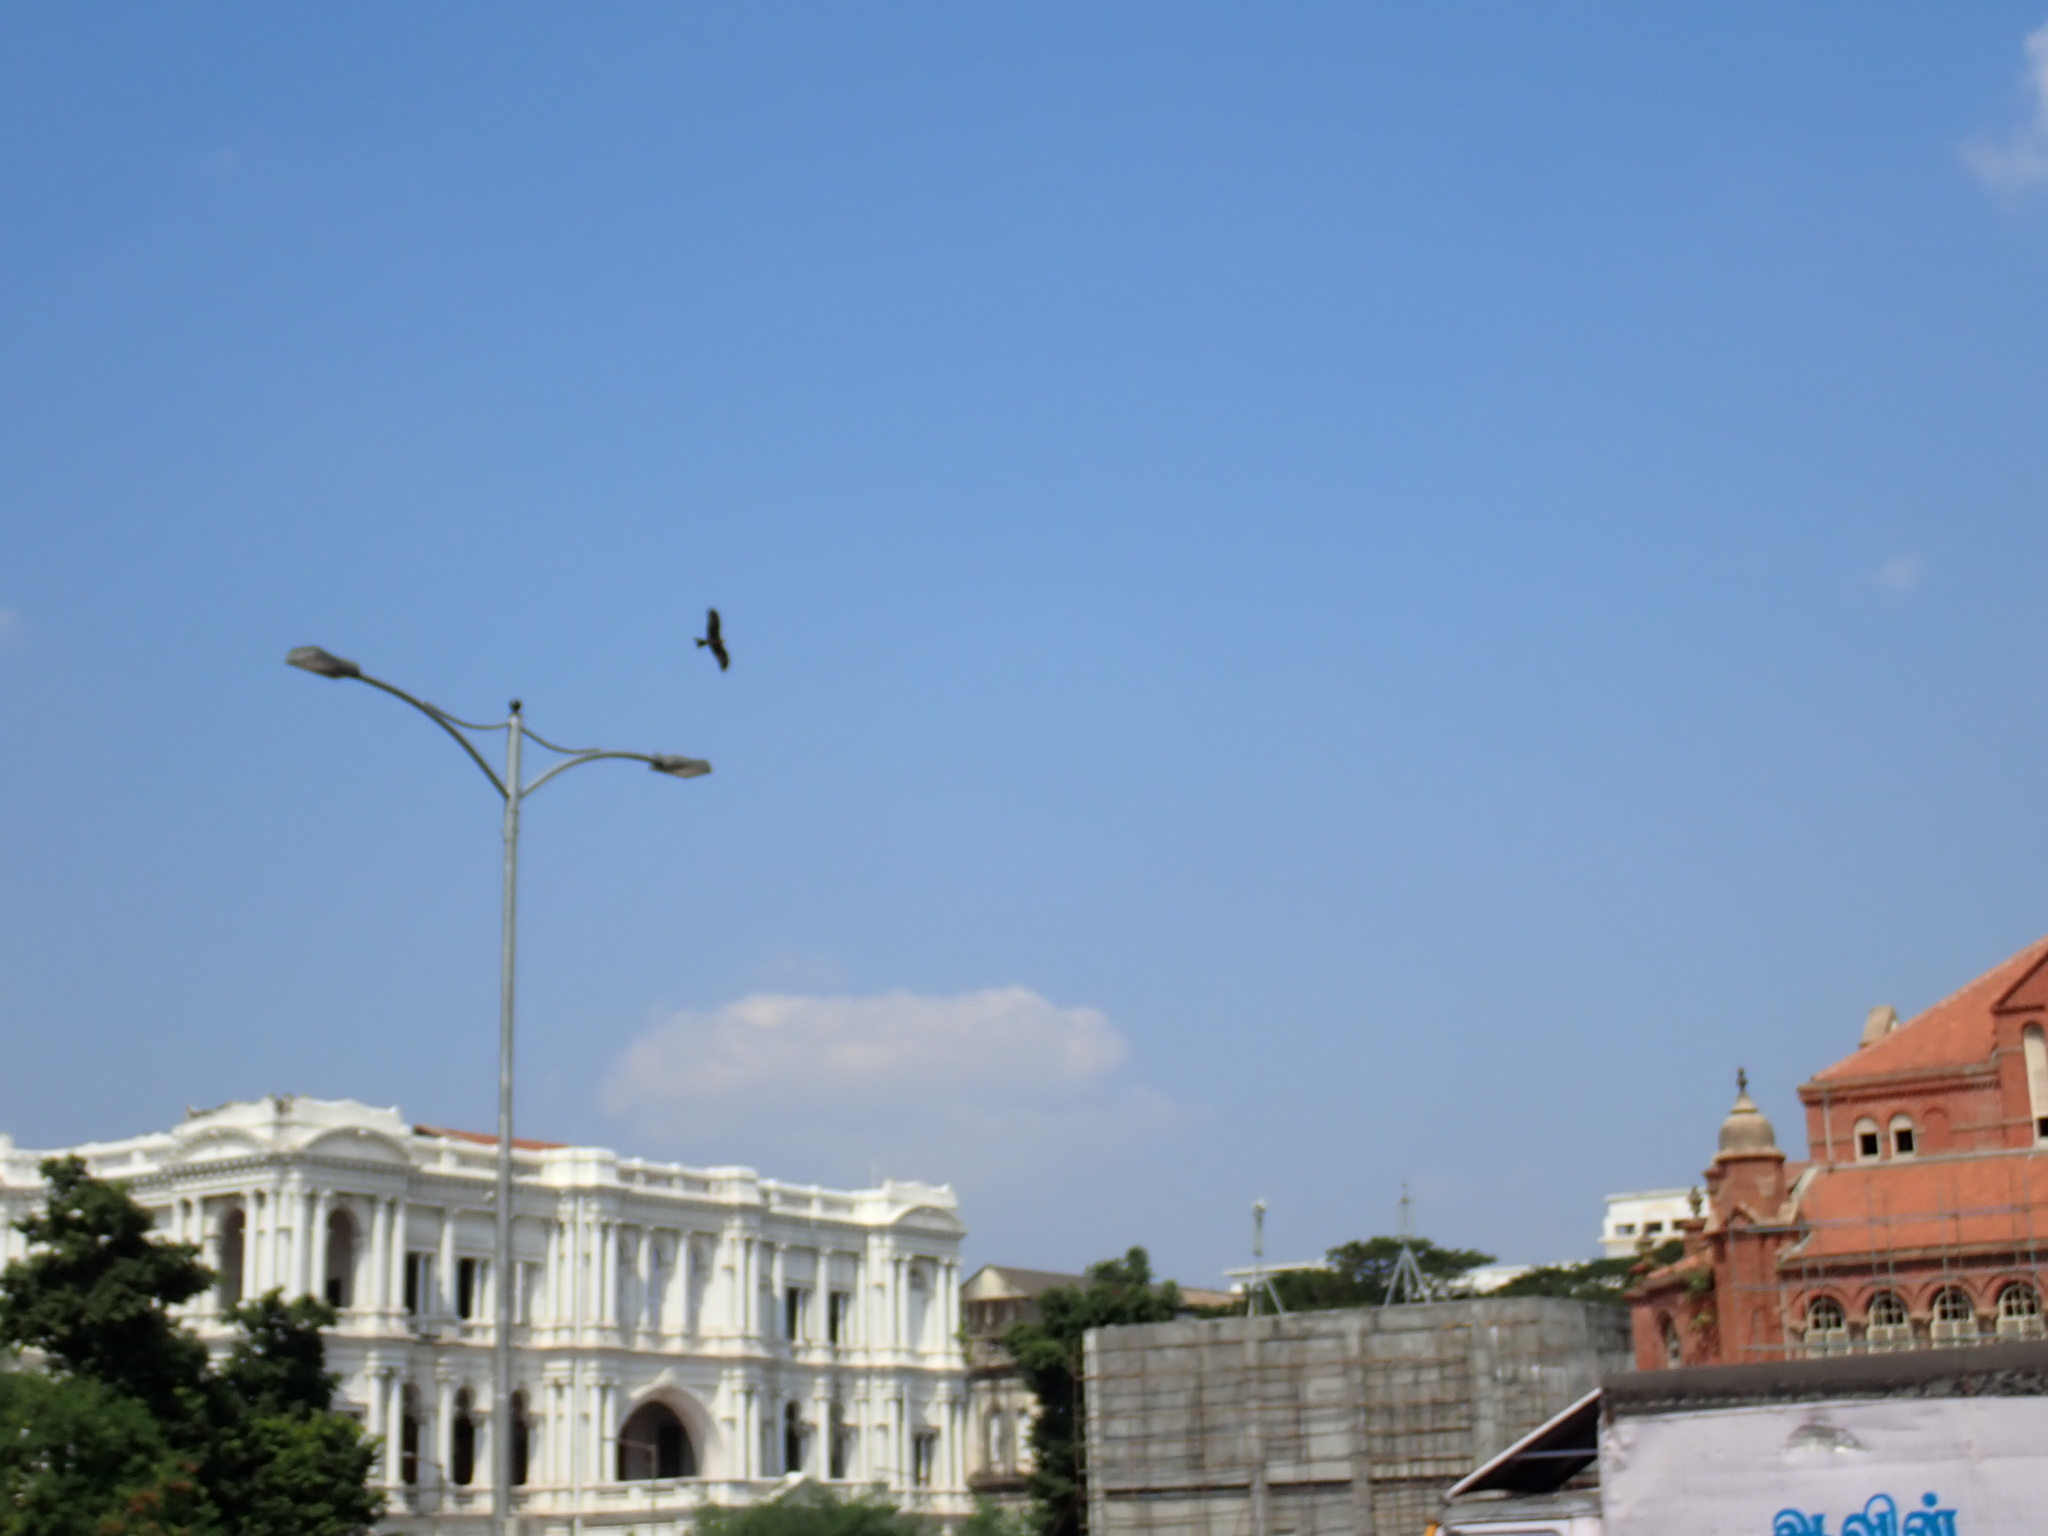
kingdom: Animalia
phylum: Chordata
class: Aves
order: Accipitriformes
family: Accipitridae
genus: Milvus
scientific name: Milvus migrans
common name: Black kite
